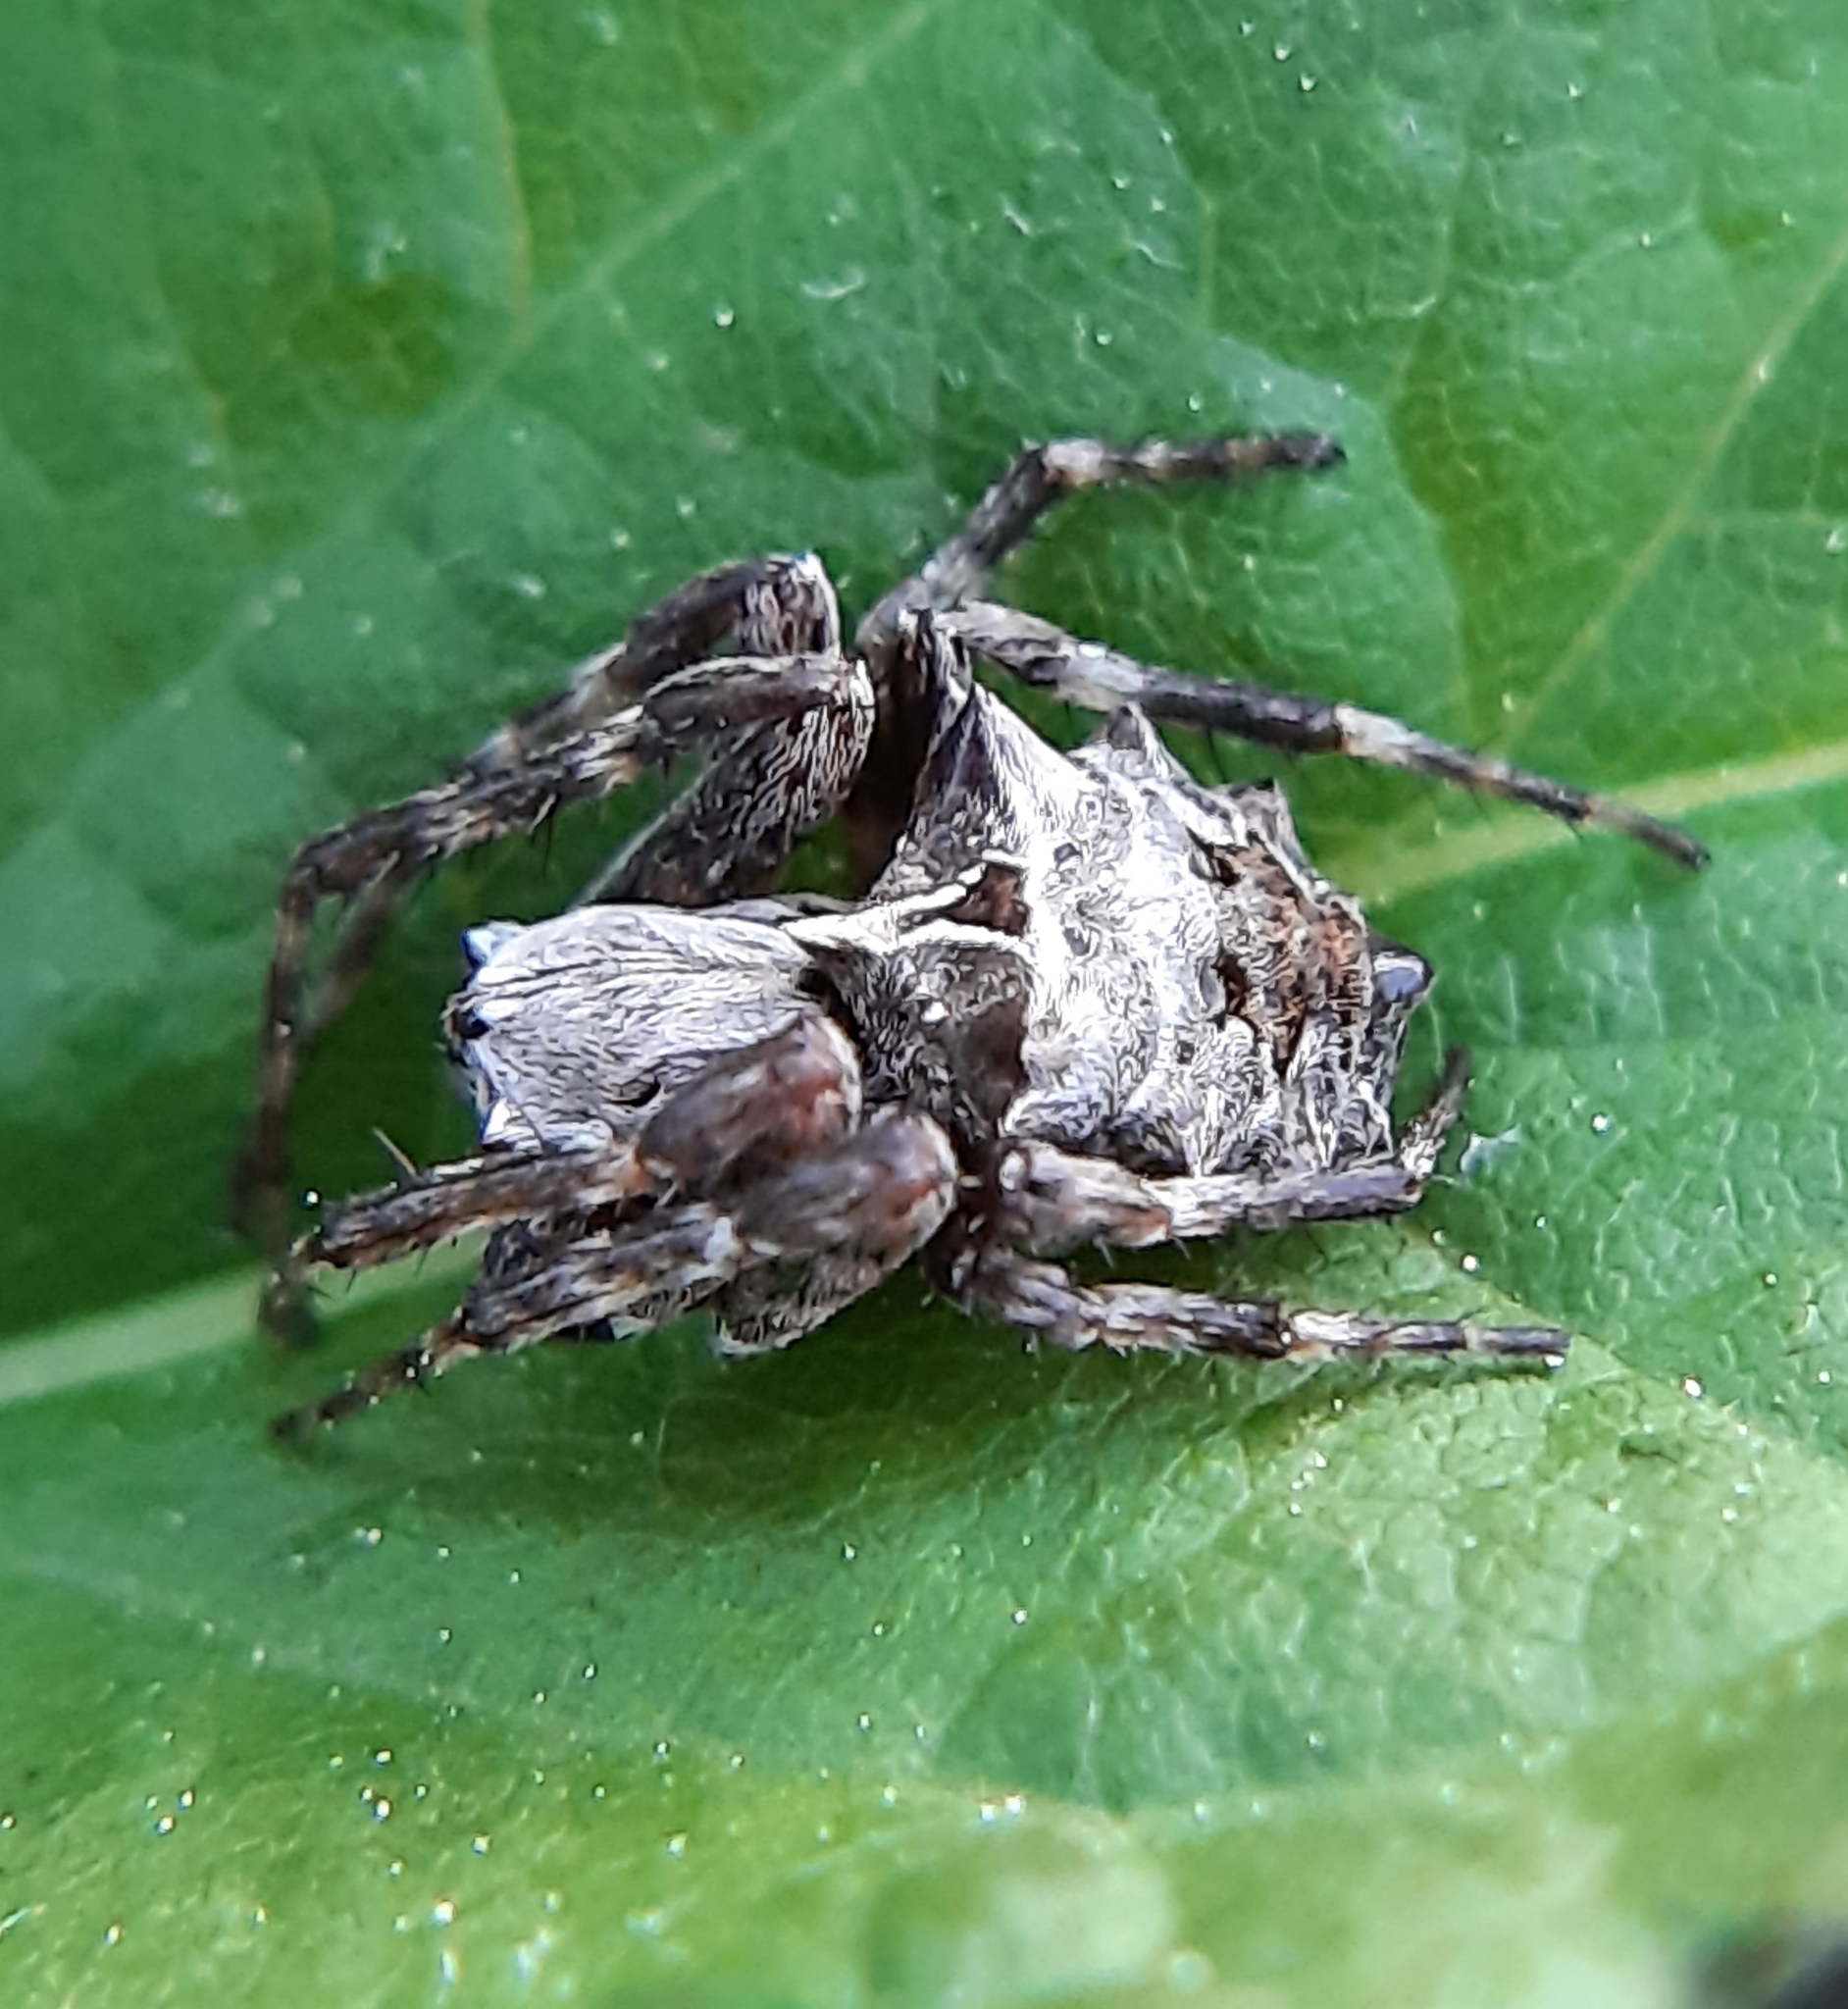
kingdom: Animalia
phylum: Arthropoda
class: Arachnida
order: Araneae
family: Araneidae
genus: Acanthepeira
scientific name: Acanthepeira stellata
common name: Starbellied orbweaver
